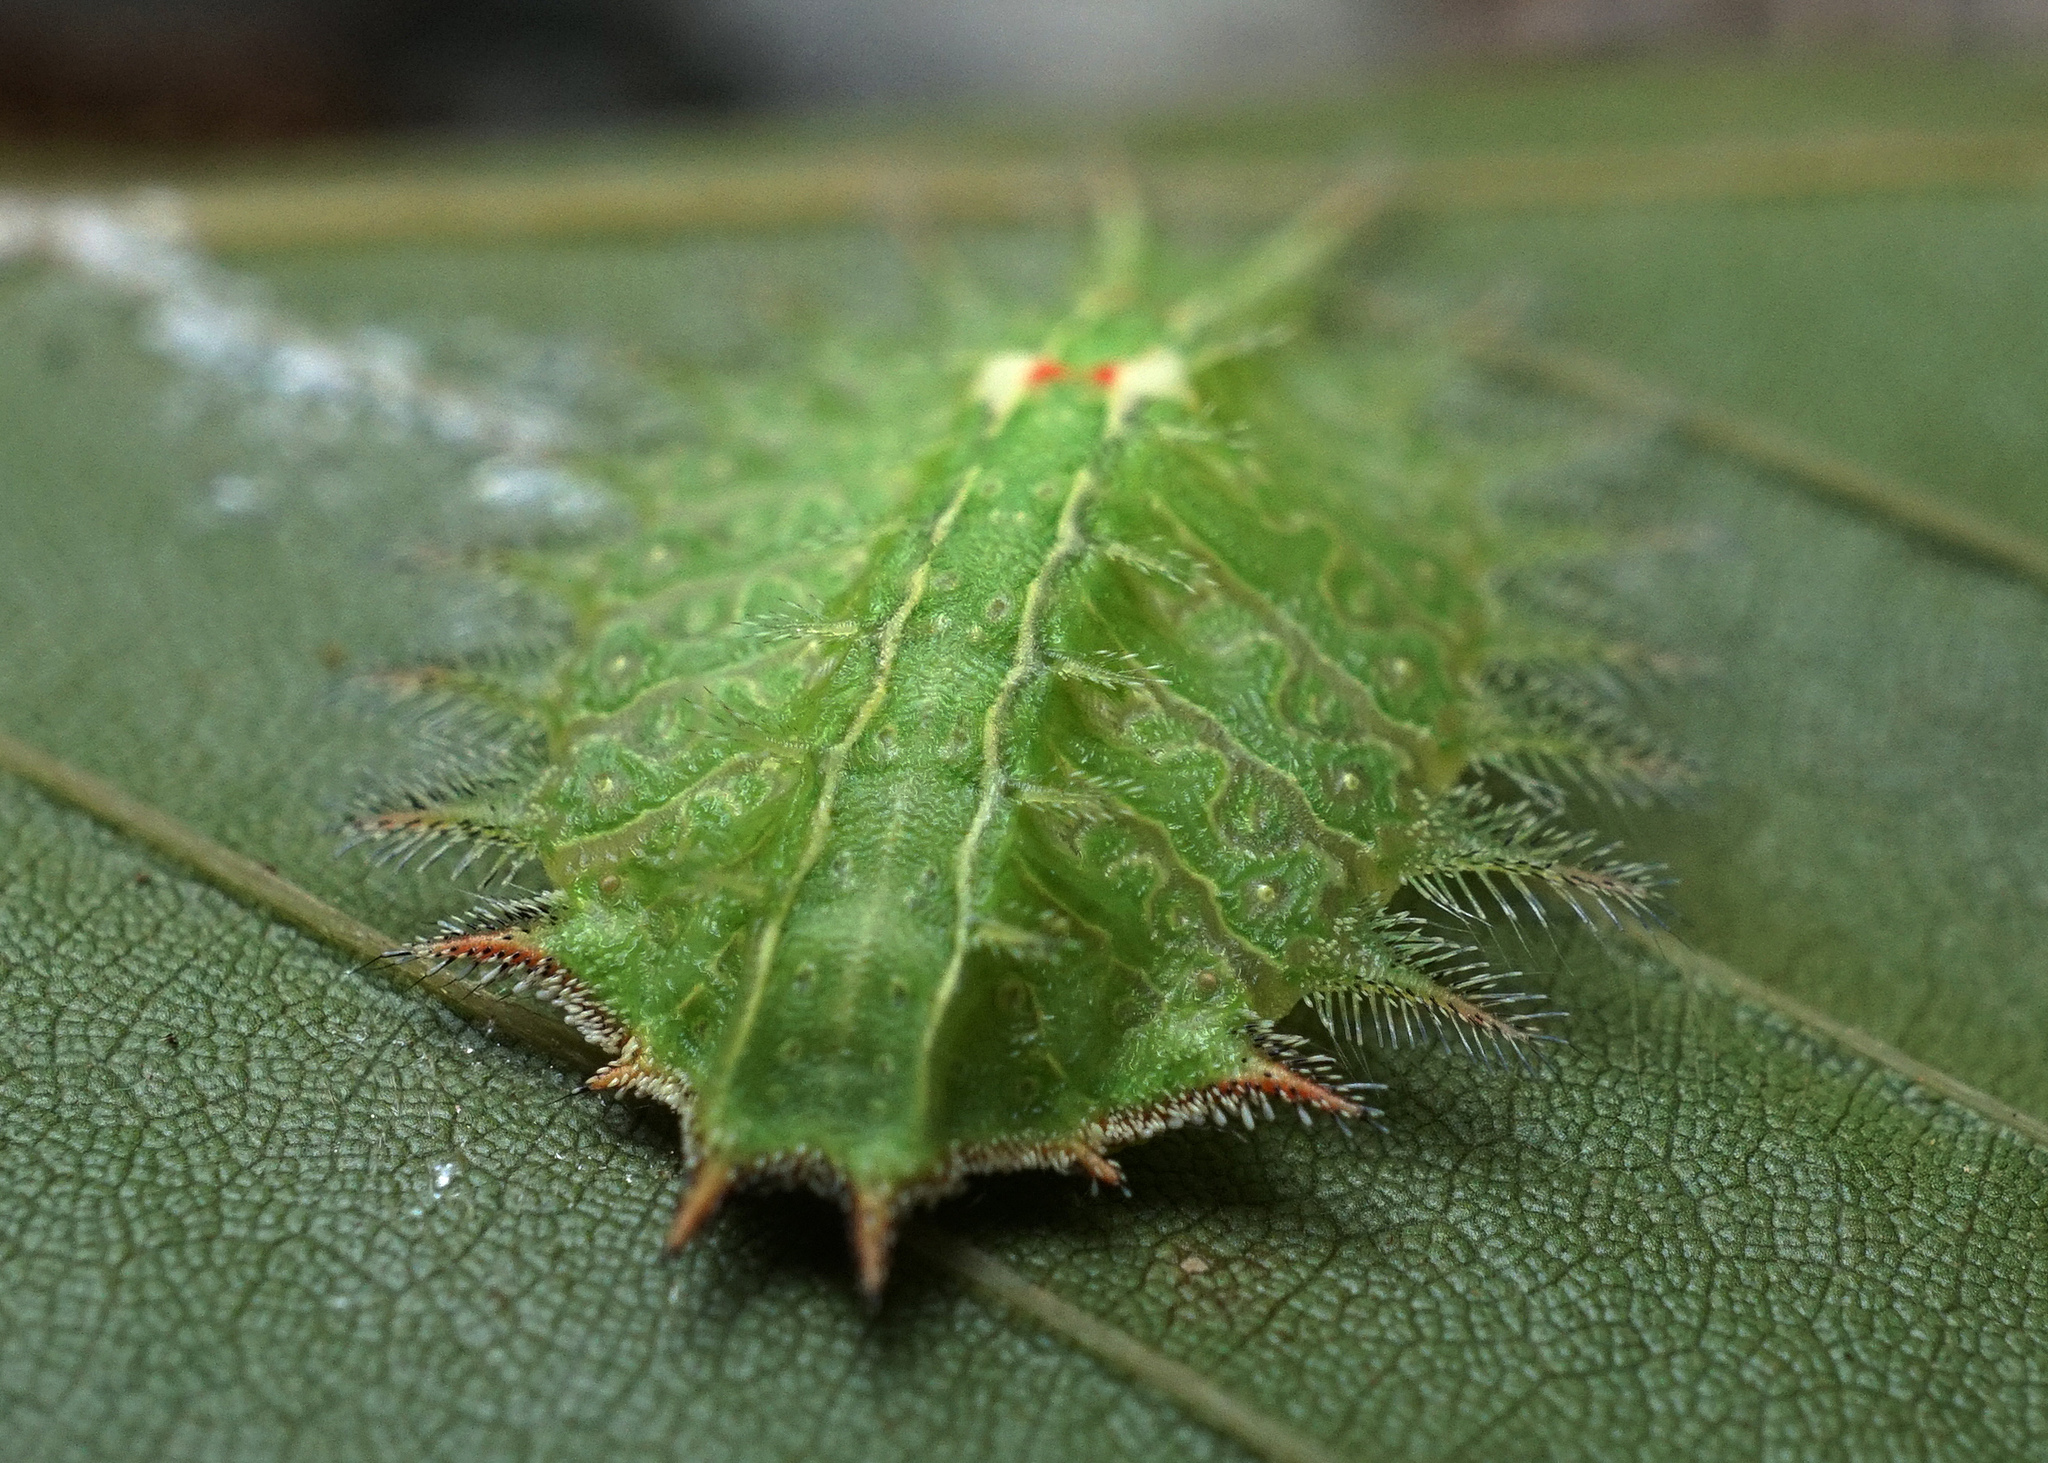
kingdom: Animalia
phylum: Arthropoda
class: Insecta
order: Lepidoptera
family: Limacodidae
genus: Isa
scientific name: Isa textula
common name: Crowned slug moth
